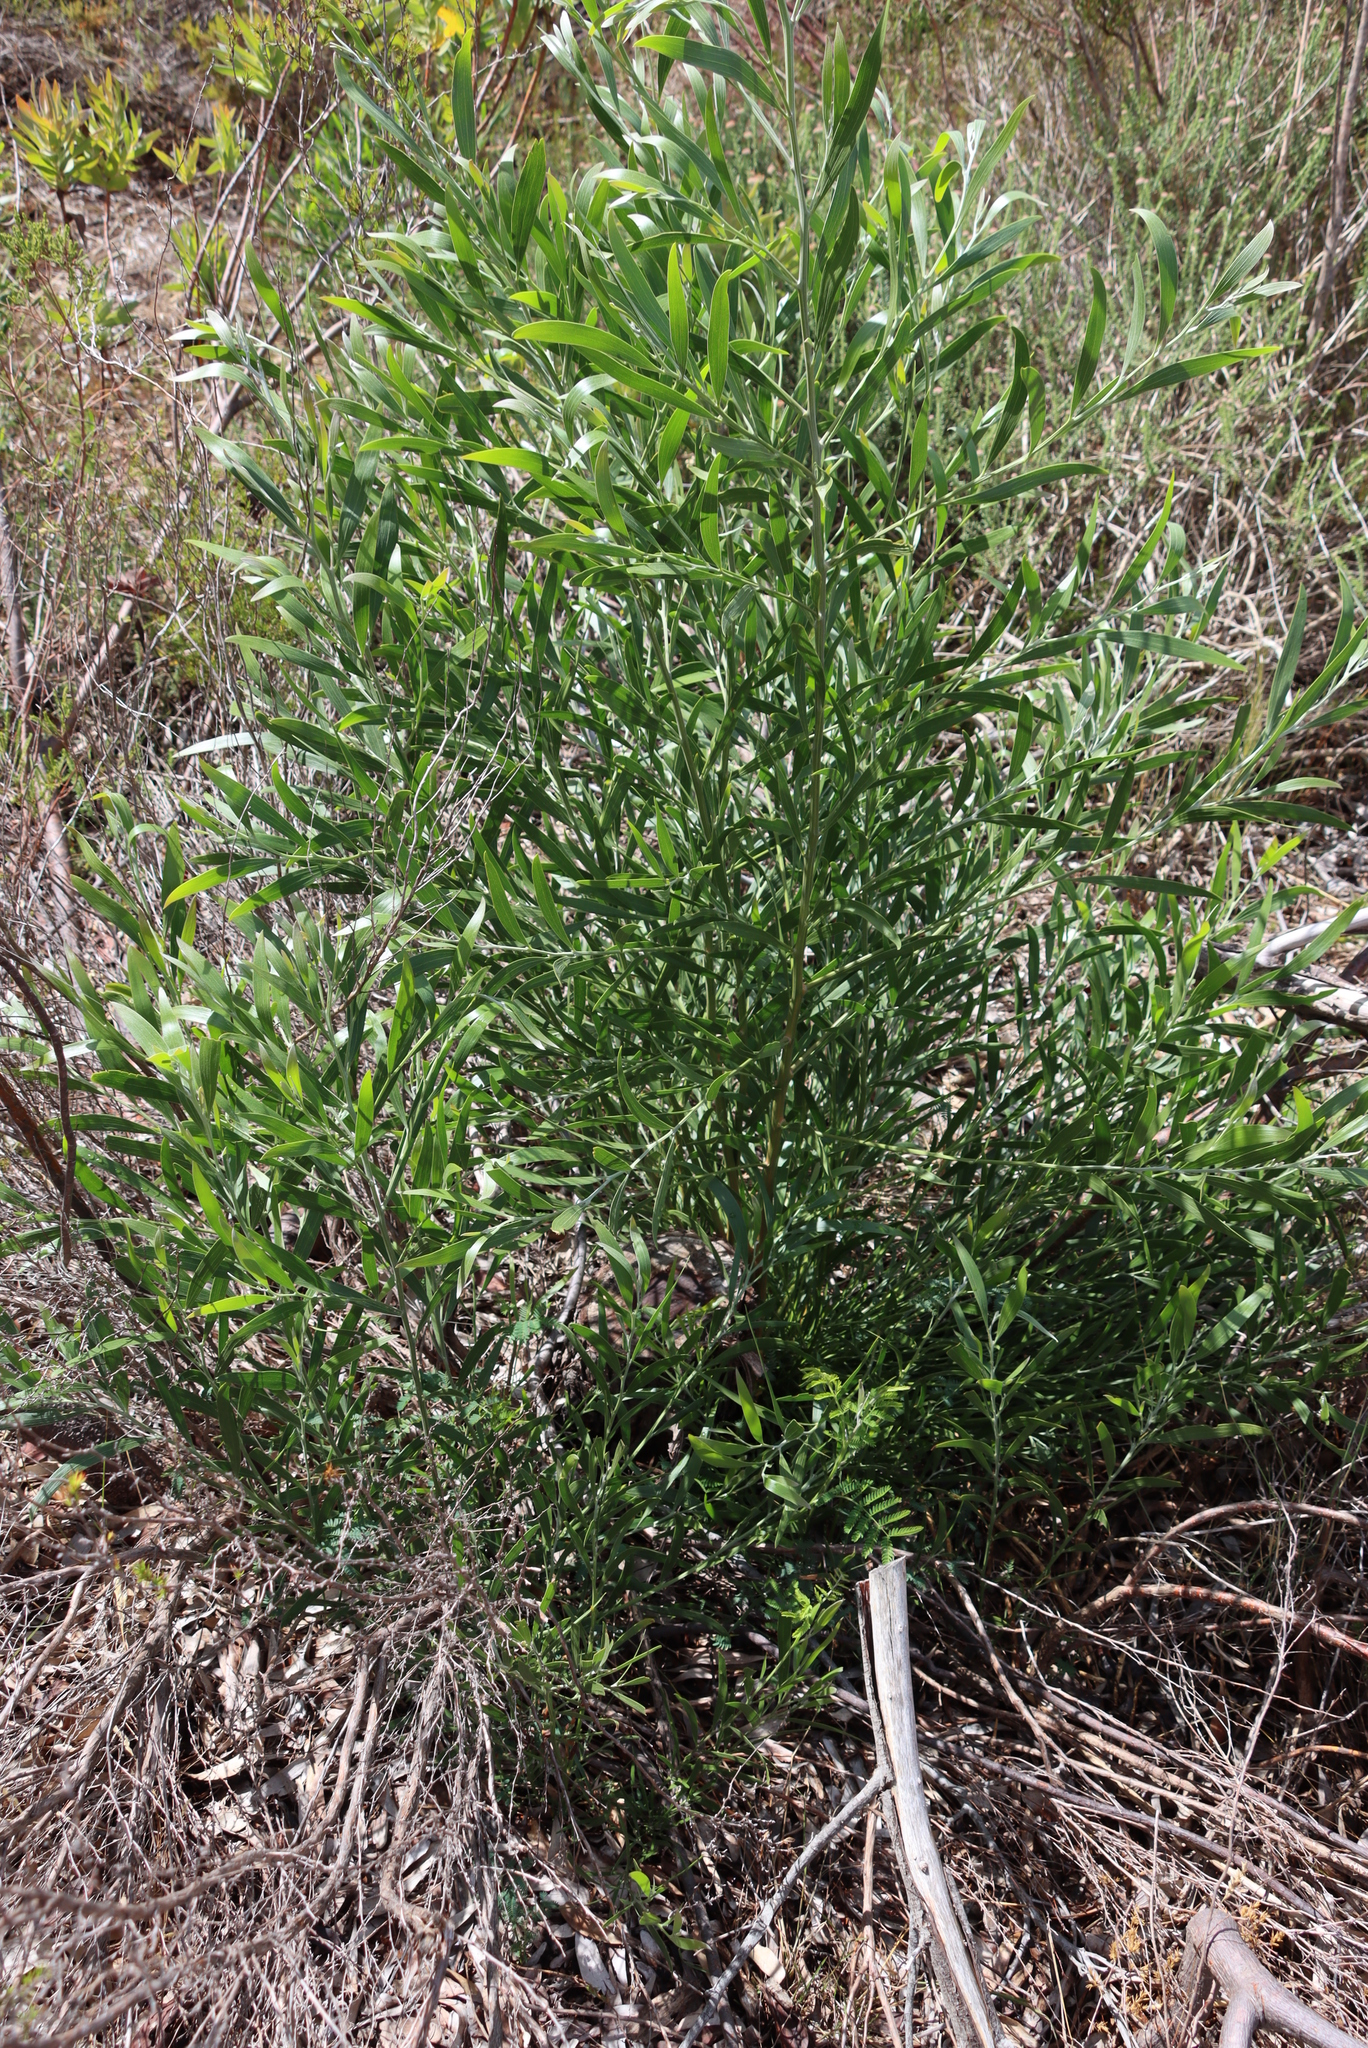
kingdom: Plantae
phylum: Tracheophyta
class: Magnoliopsida
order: Fabales
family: Fabaceae
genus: Acacia
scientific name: Acacia melanoxylon
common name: Blackwood
